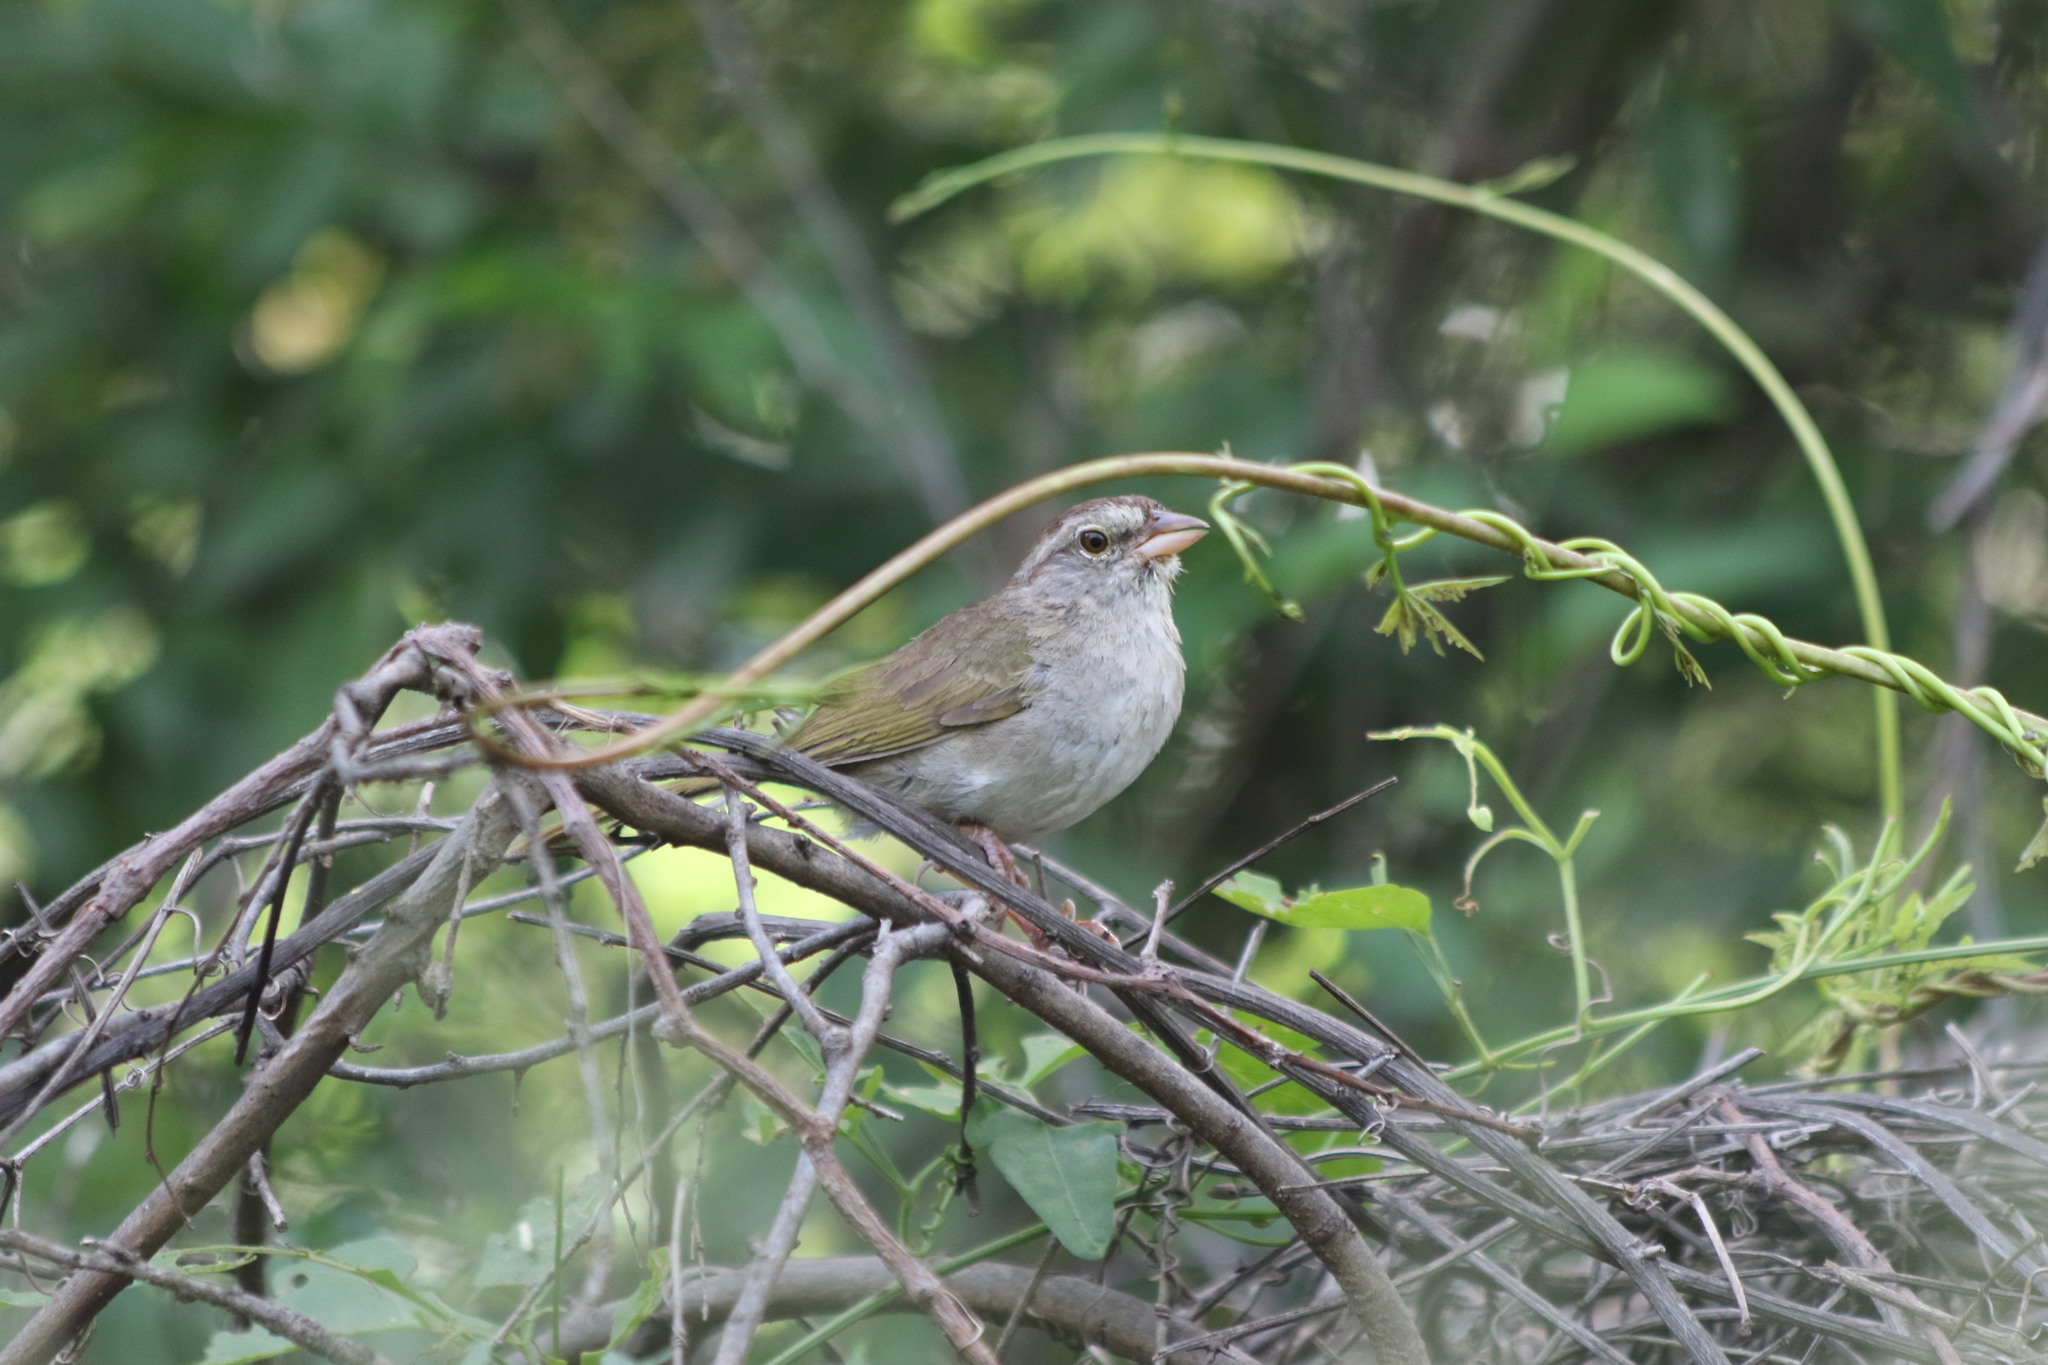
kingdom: Animalia
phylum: Chordata
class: Aves
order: Passeriformes
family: Passerellidae
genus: Arremonops
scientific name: Arremonops rufivirgatus
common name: Olive sparrow
